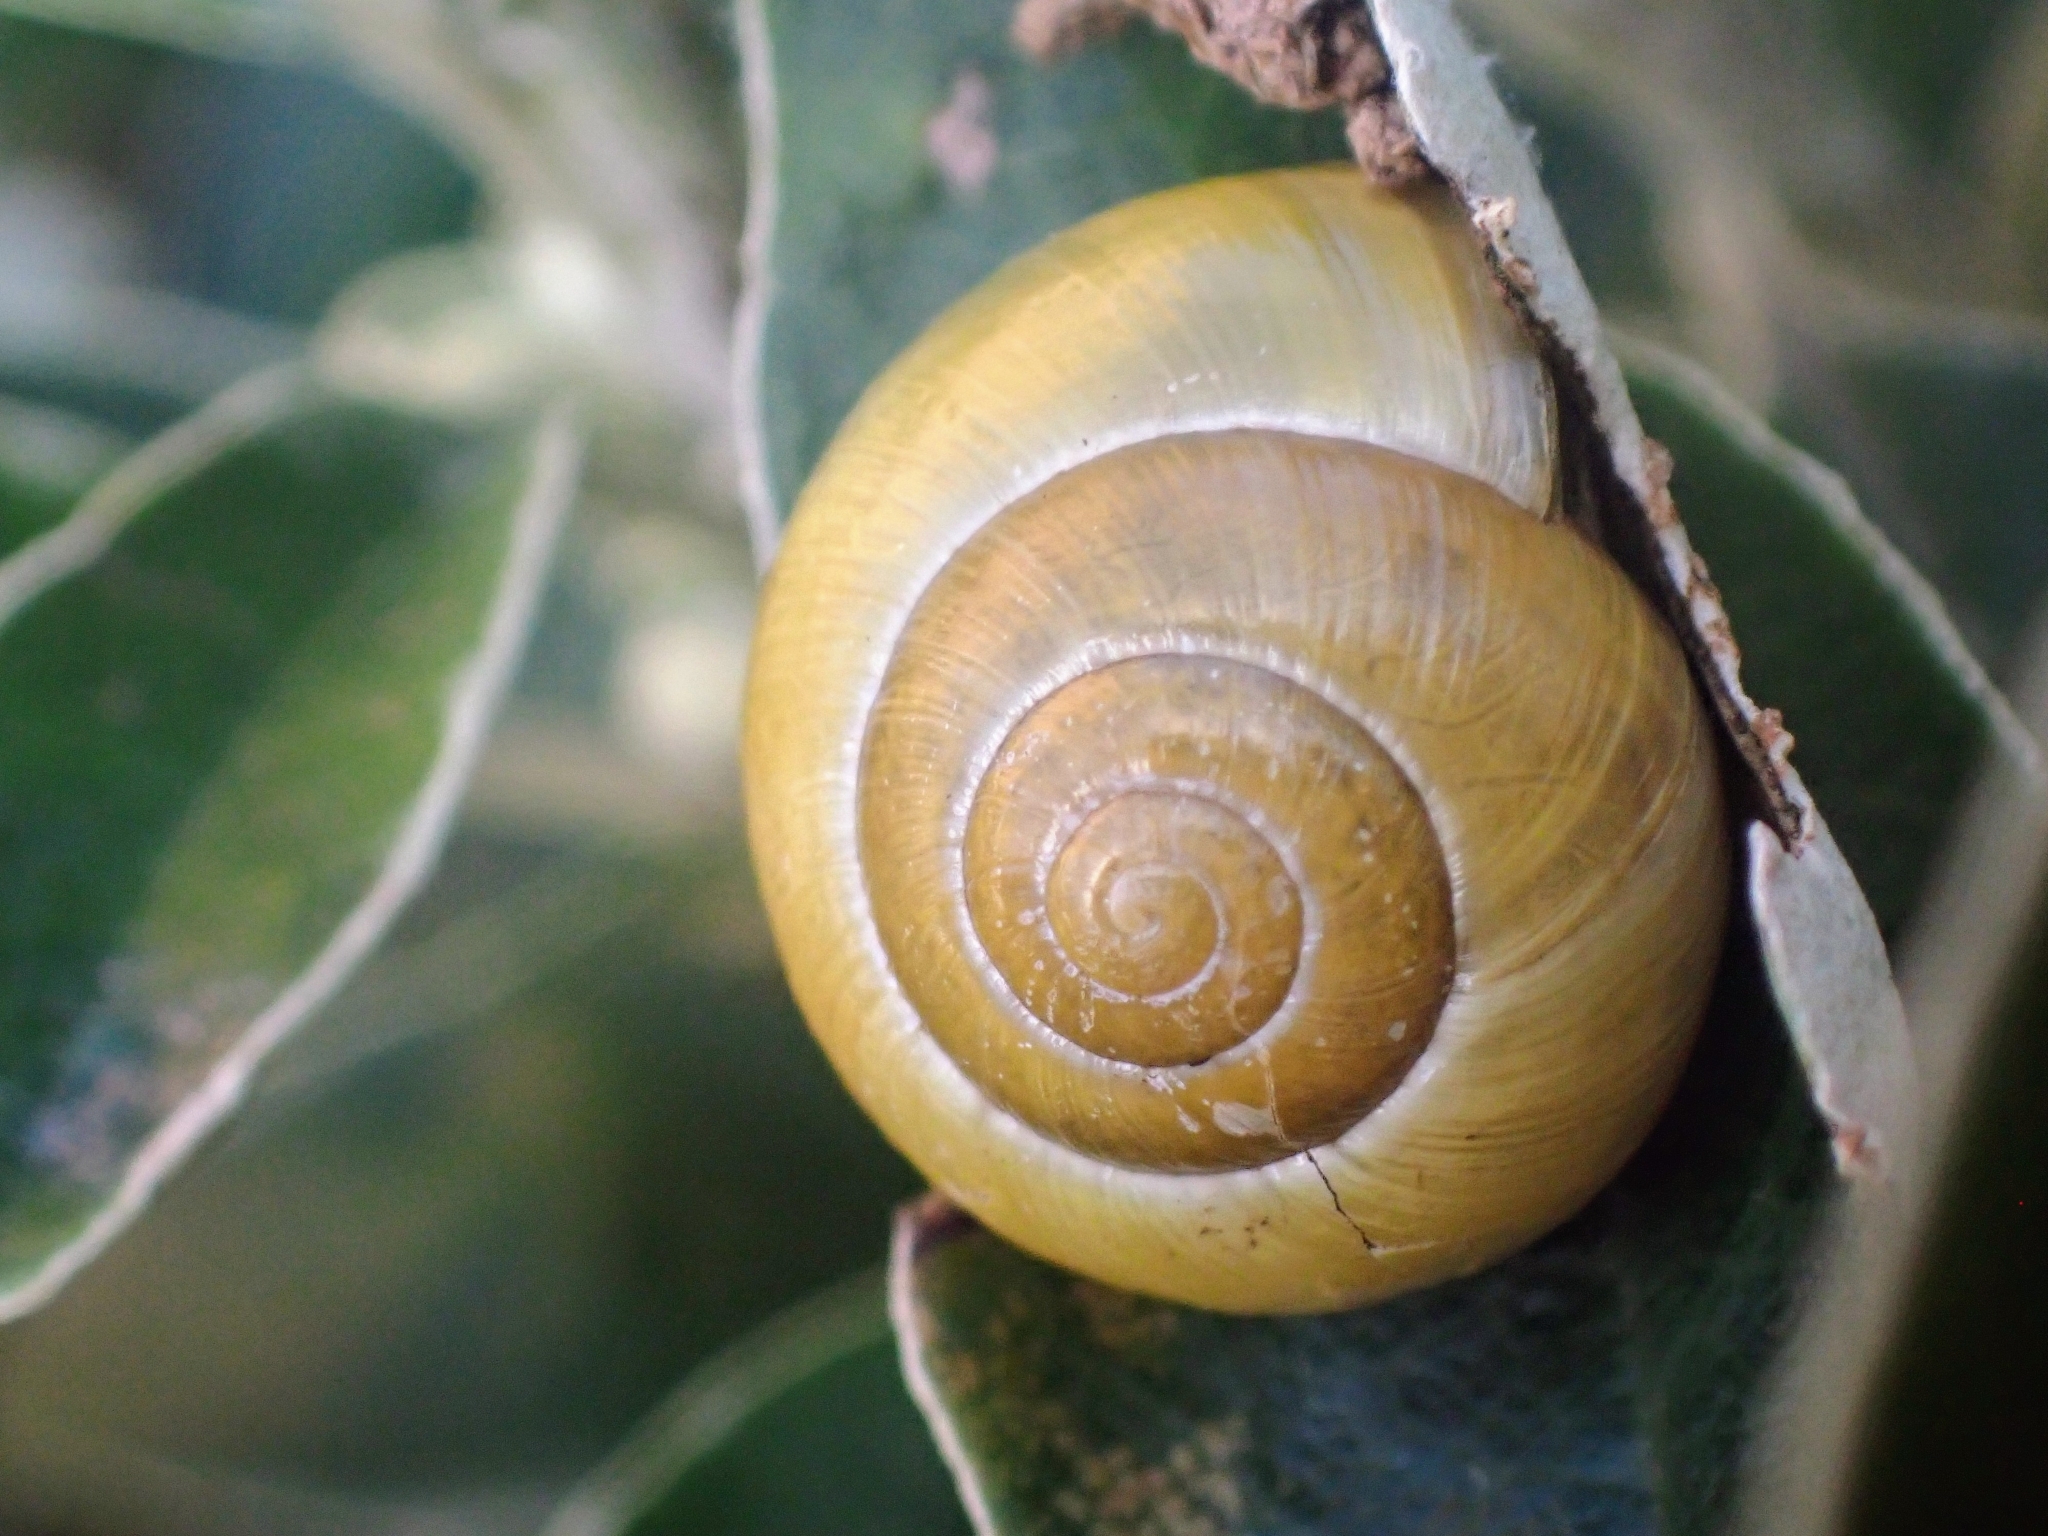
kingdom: Animalia
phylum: Mollusca
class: Gastropoda
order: Stylommatophora
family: Helicidae
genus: Cepaea
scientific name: Cepaea
